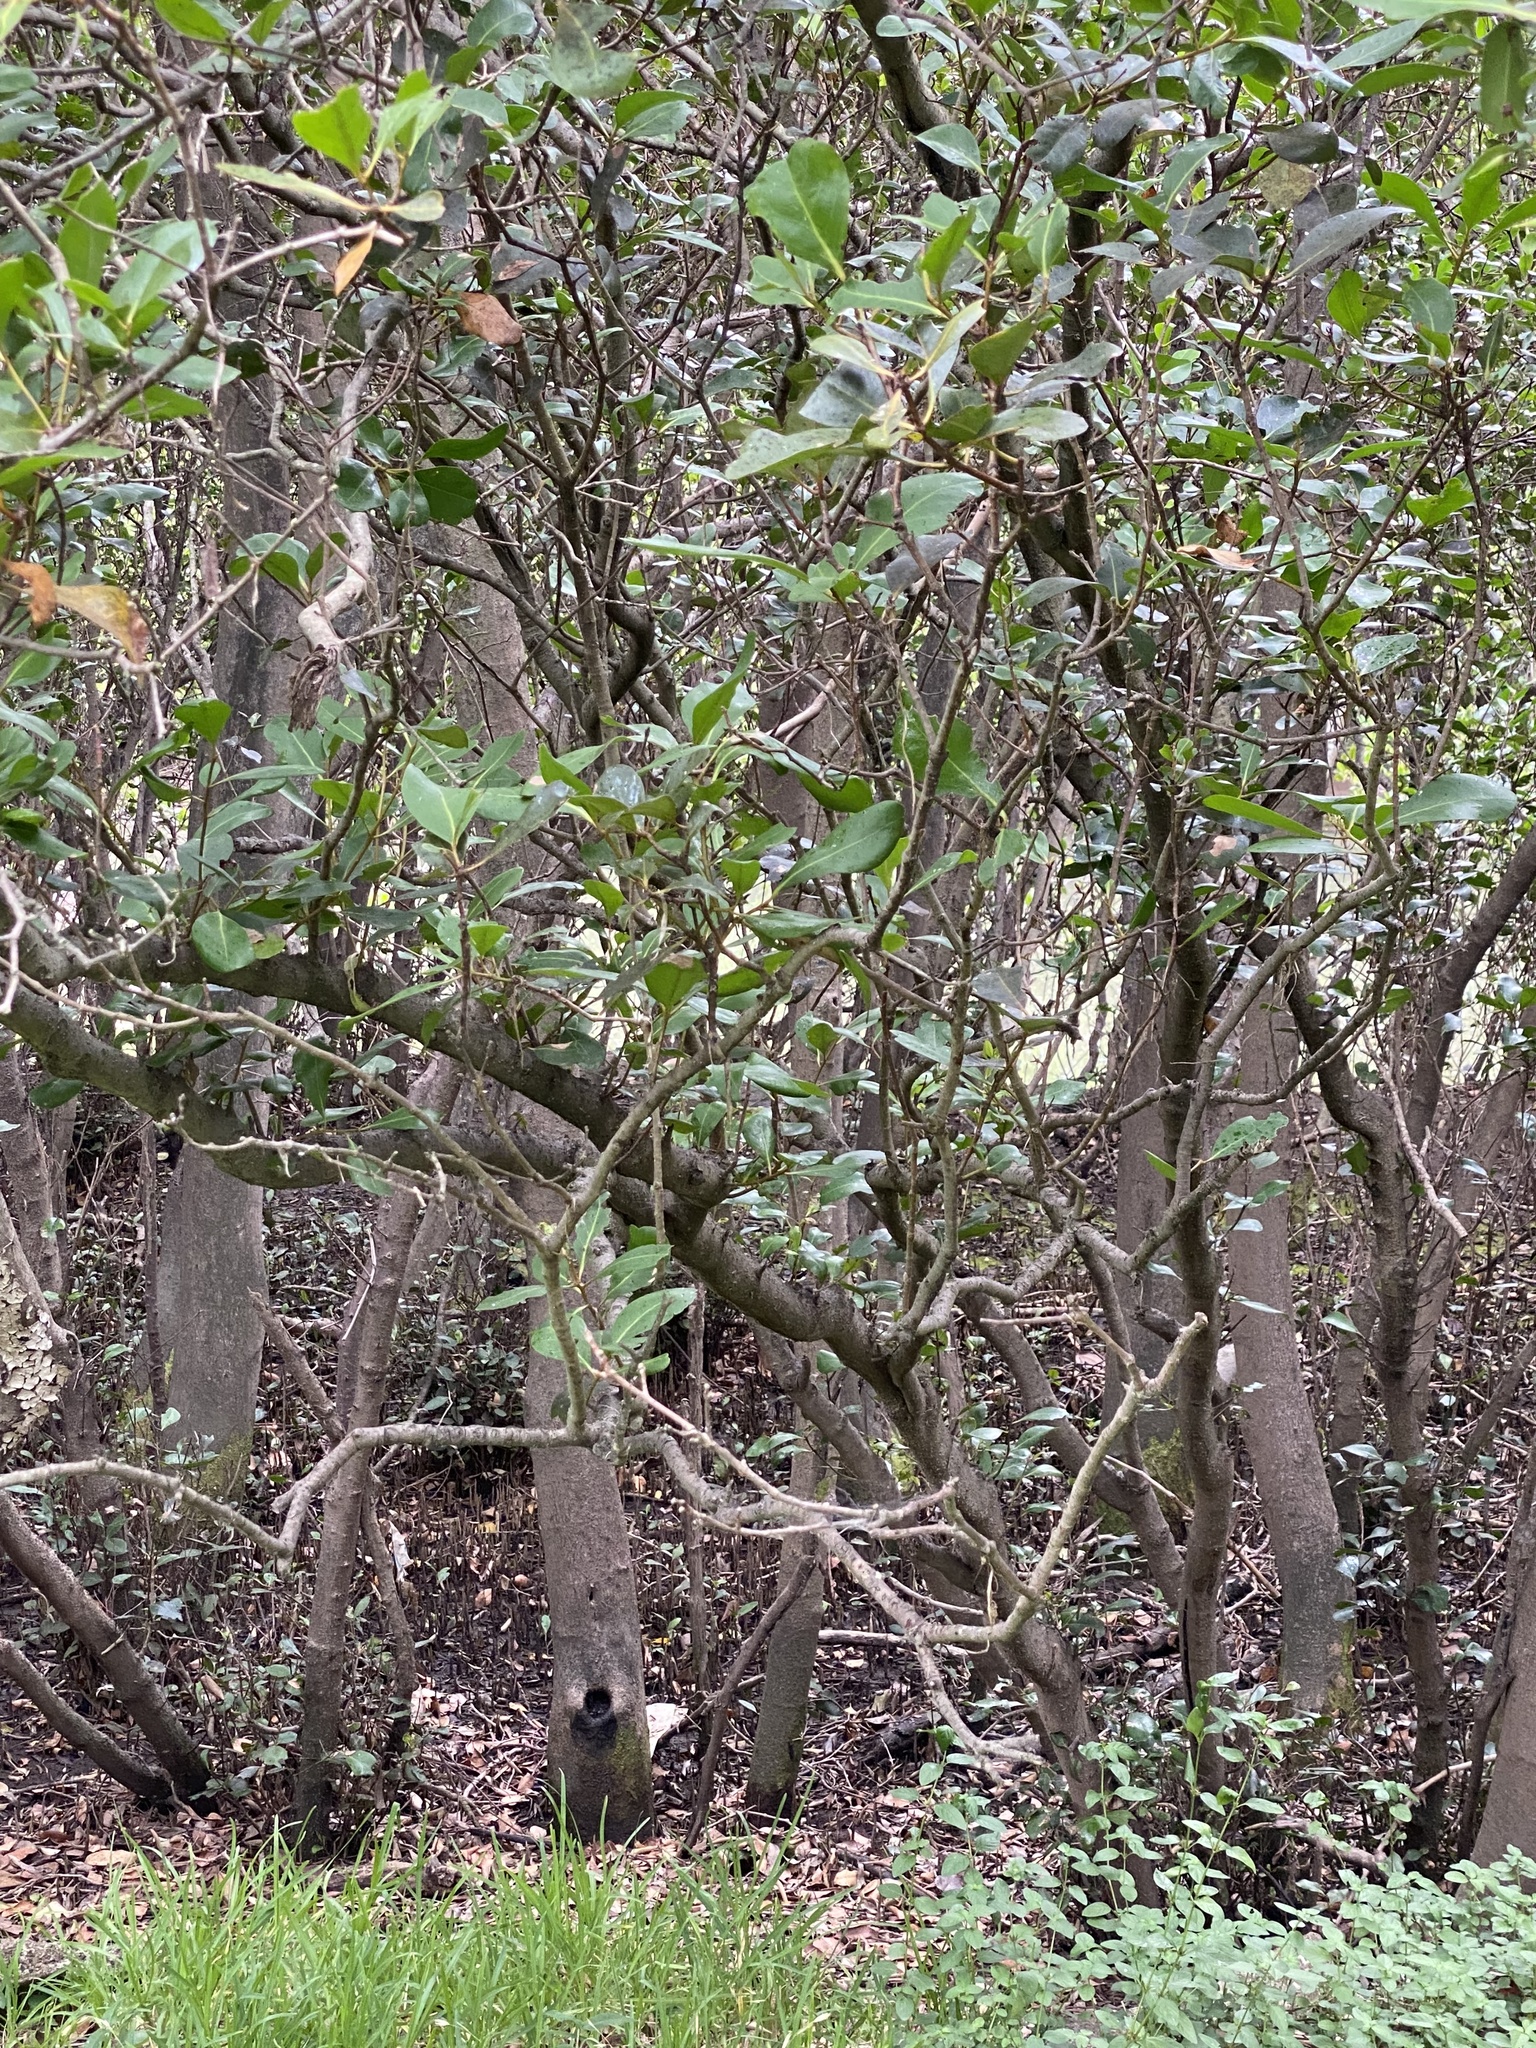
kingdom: Plantae
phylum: Tracheophyta
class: Magnoliopsida
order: Ericales
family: Primulaceae
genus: Aegiceras
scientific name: Aegiceras corniculatum
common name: River mangrove
